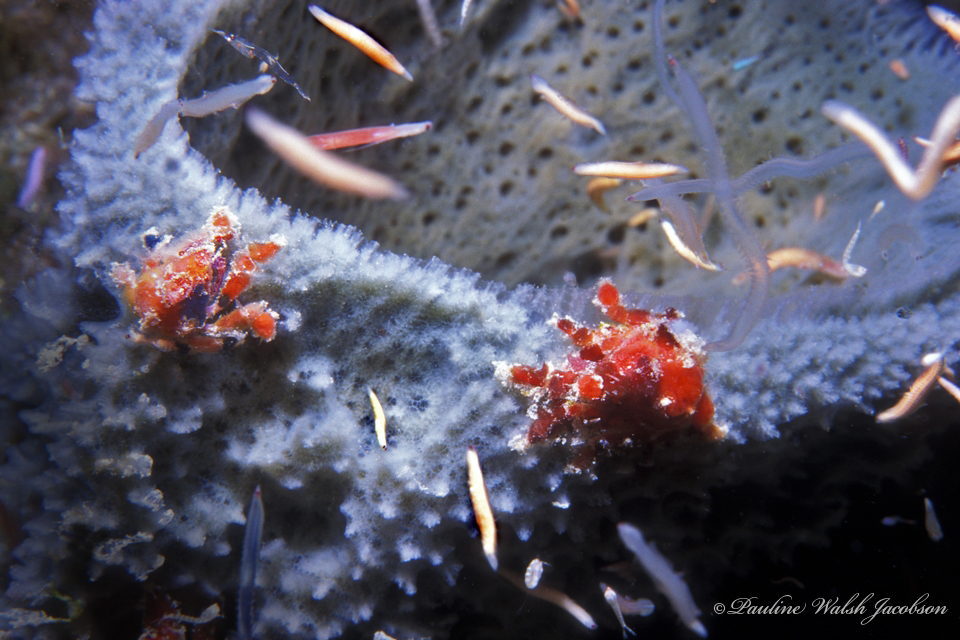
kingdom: Animalia
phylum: Arthropoda
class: Malacostraca
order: Decapoda
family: Epialtidae
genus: Pelia
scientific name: Pelia mutica
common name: Cryptic teardrop crab
